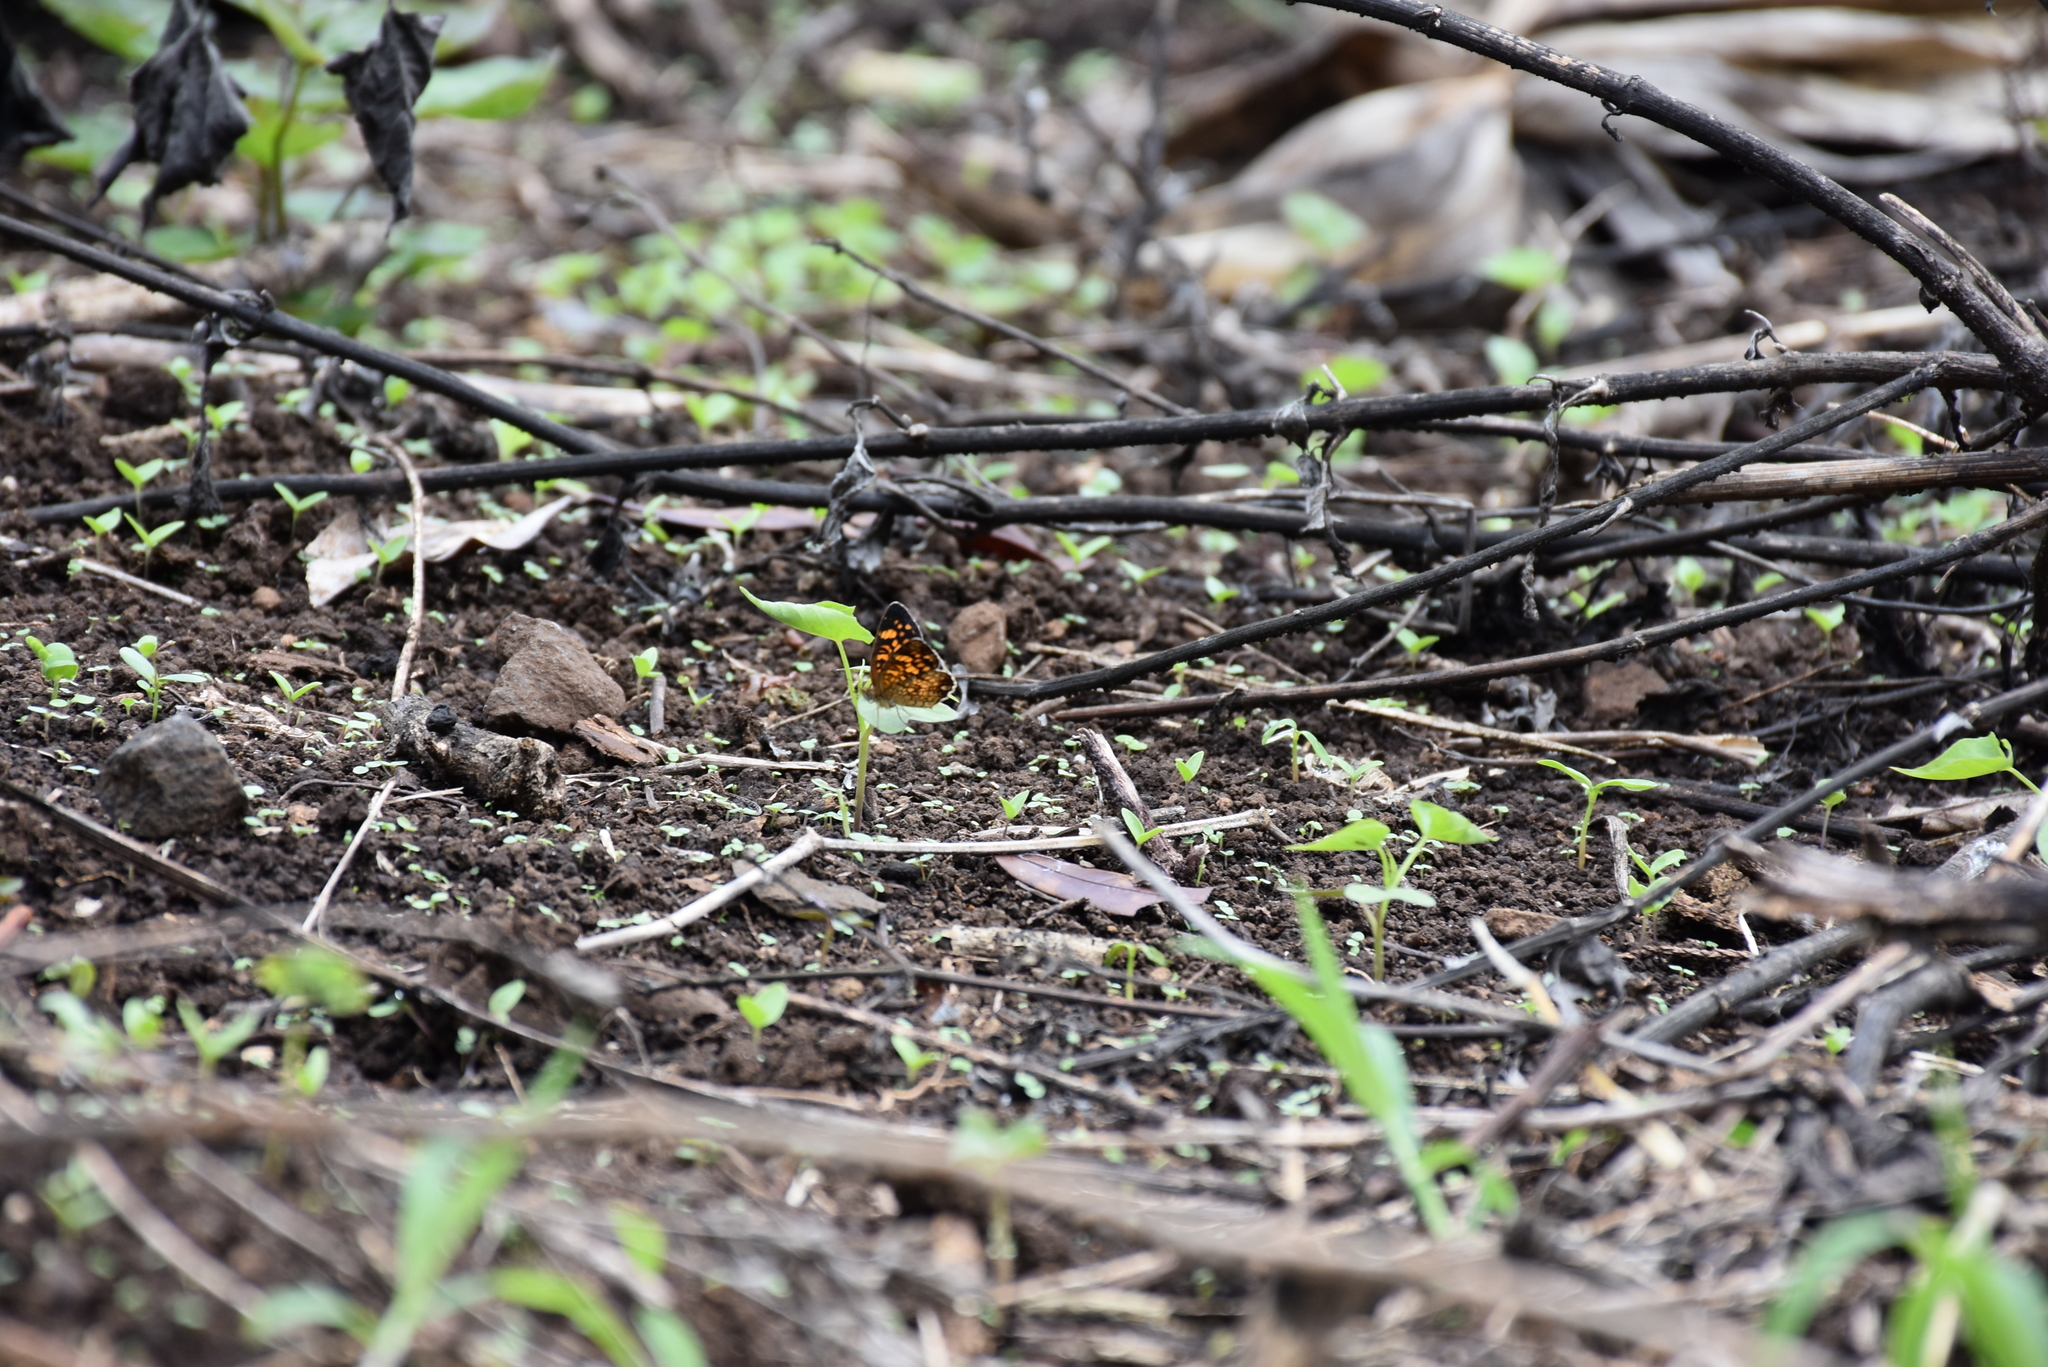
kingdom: Animalia
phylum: Arthropoda
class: Insecta
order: Lepidoptera
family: Nymphalidae
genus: Phyciodes
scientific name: Phyciodes vesta
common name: Vesta crescent
